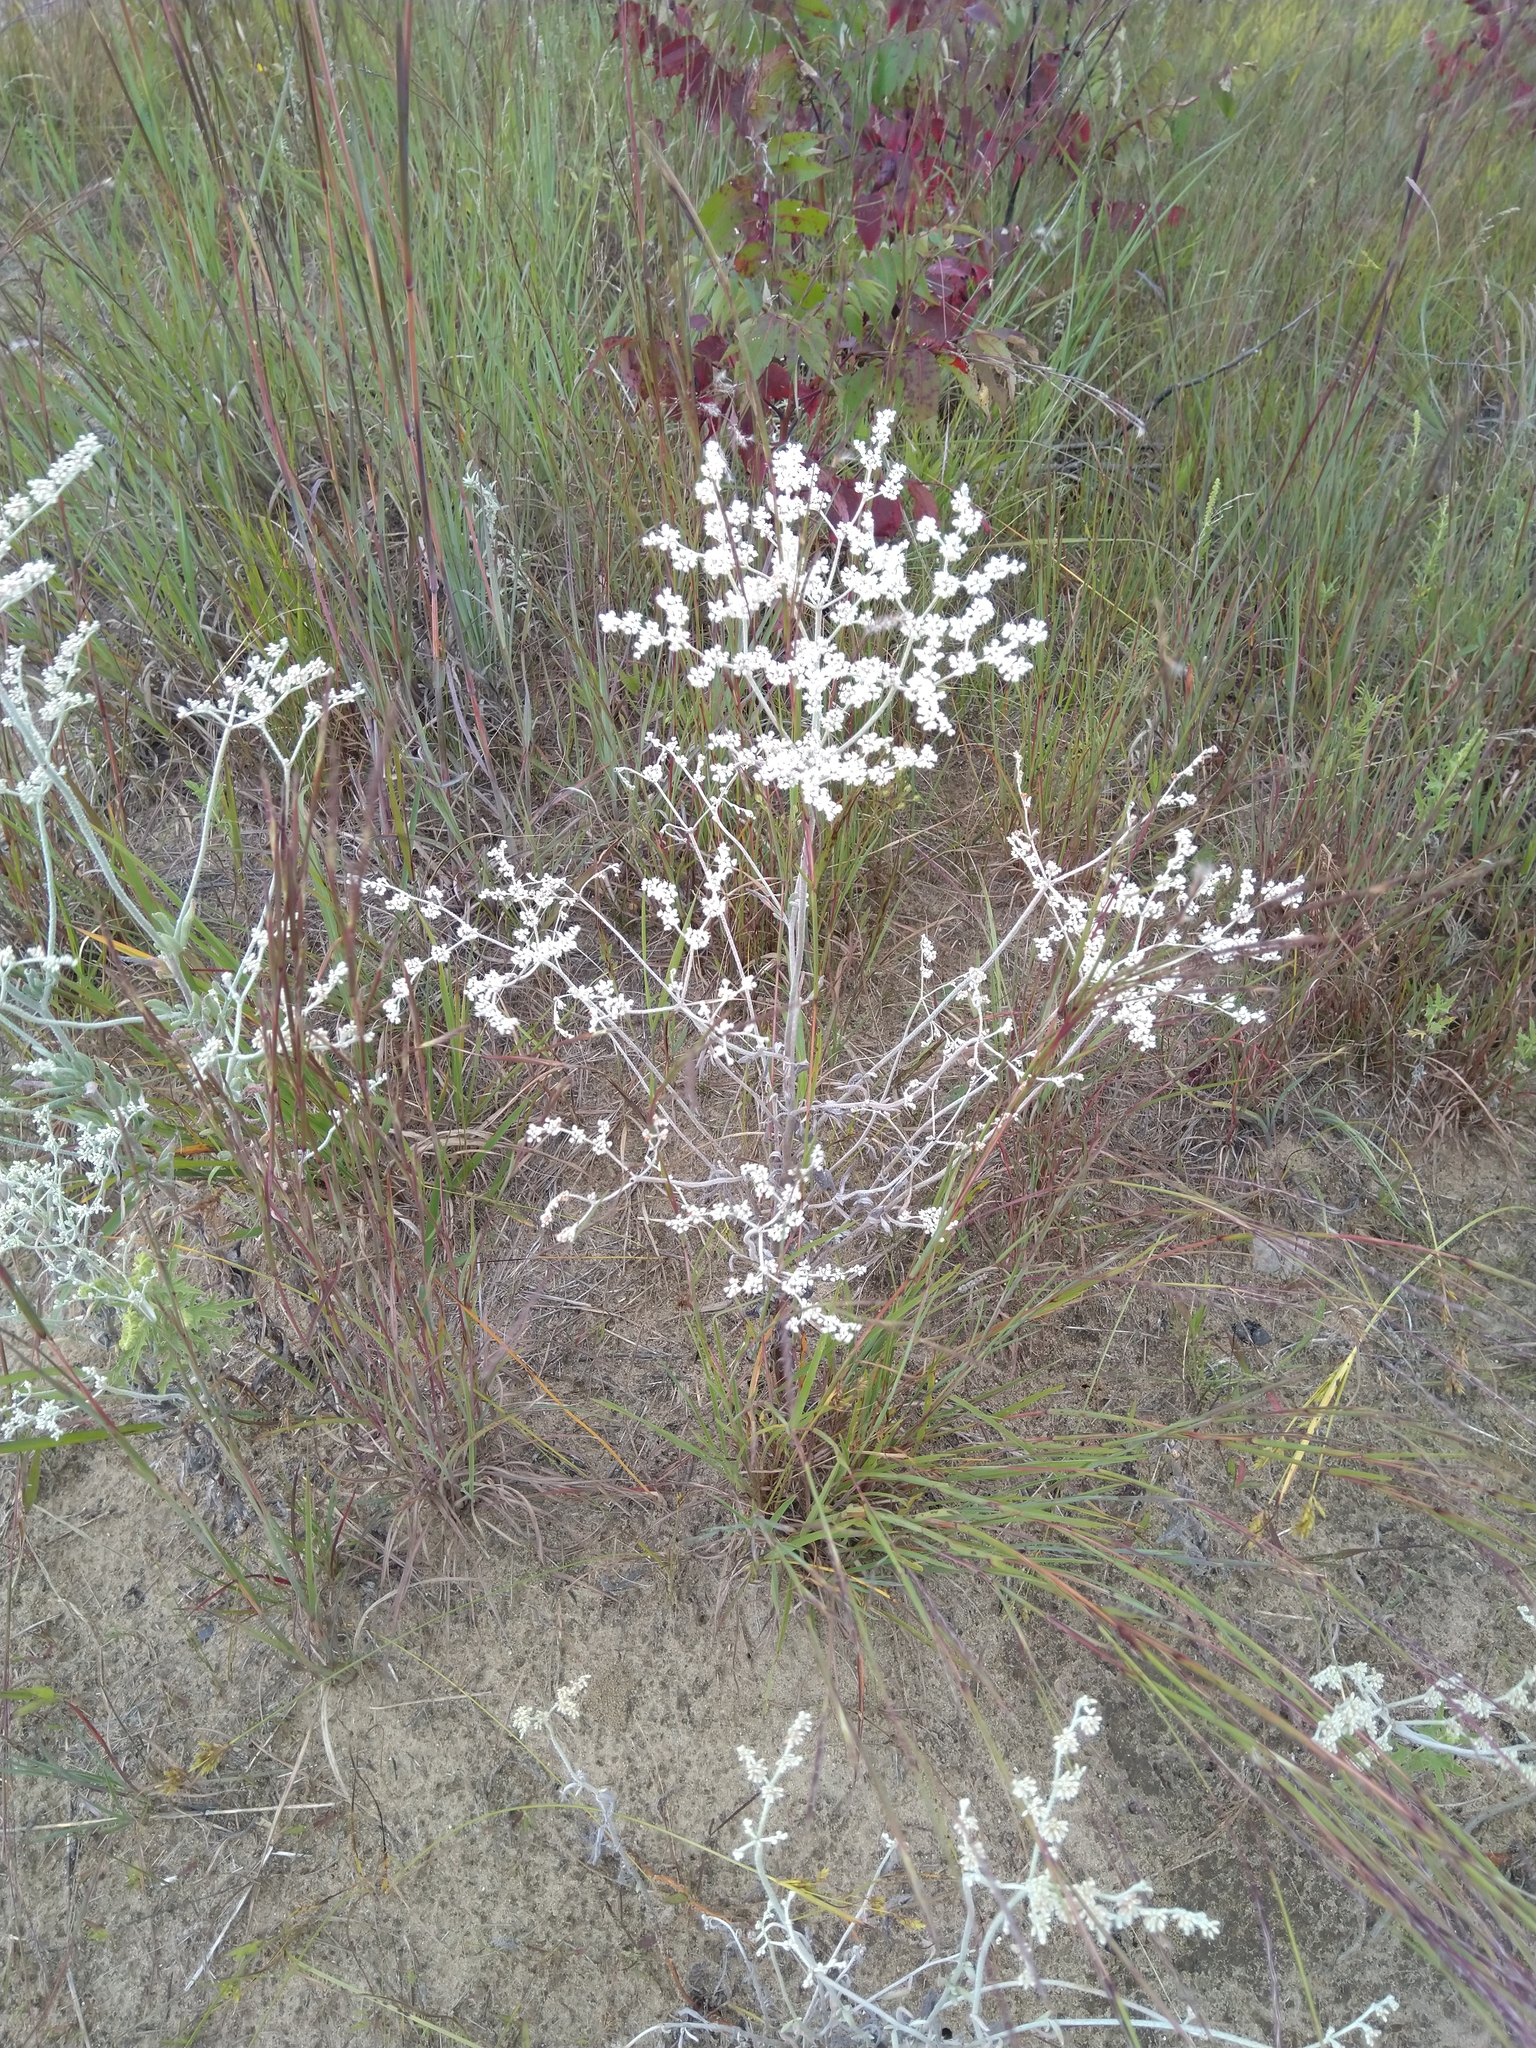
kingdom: Plantae
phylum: Tracheophyta
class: Magnoliopsida
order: Caryophyllales
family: Polygonaceae
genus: Eriogonum
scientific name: Eriogonum annuum
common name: Annual wild buckwheat
